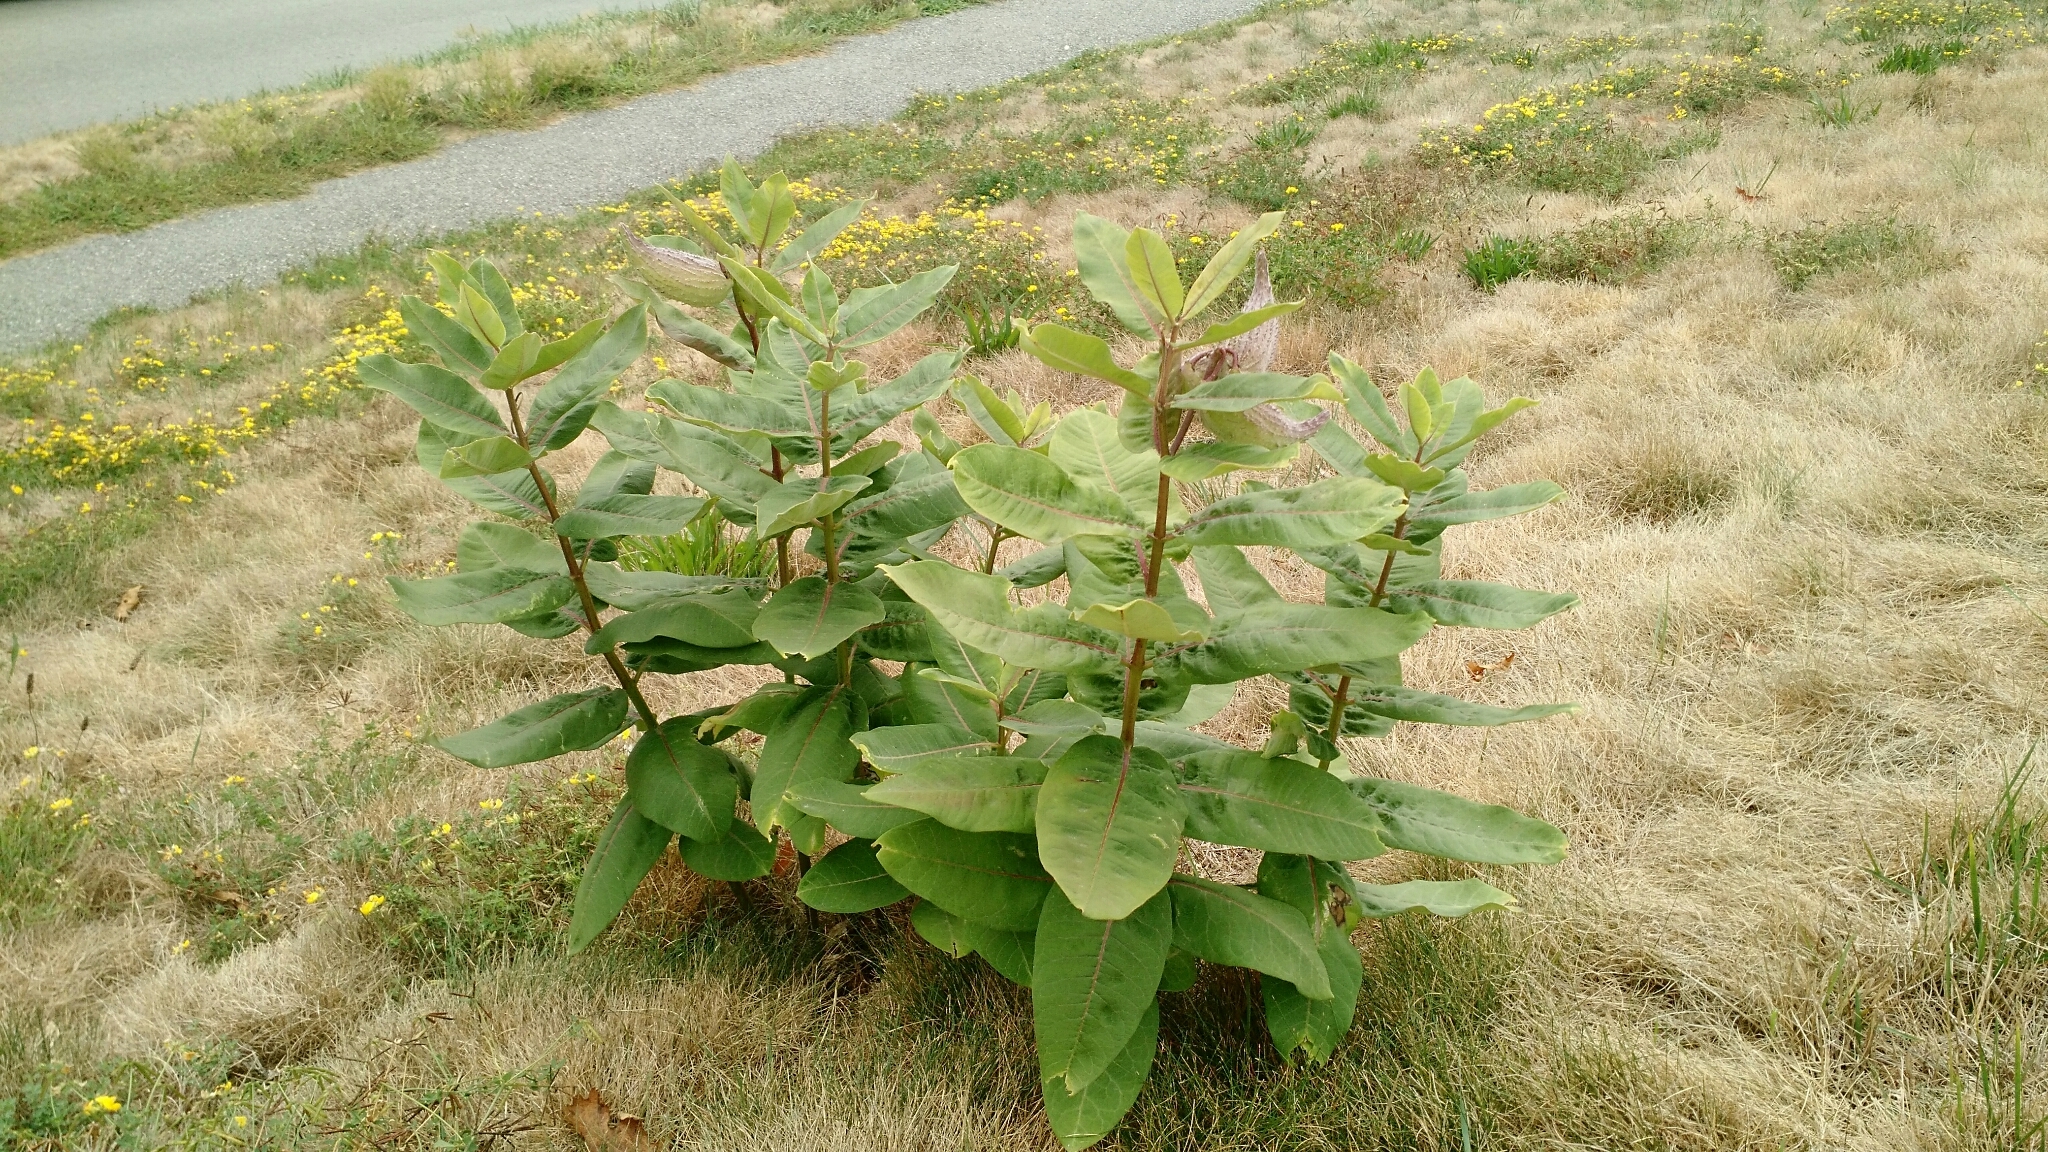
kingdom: Plantae
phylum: Tracheophyta
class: Magnoliopsida
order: Gentianales
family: Apocynaceae
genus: Asclepias
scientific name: Asclepias syriaca
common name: Common milkweed
